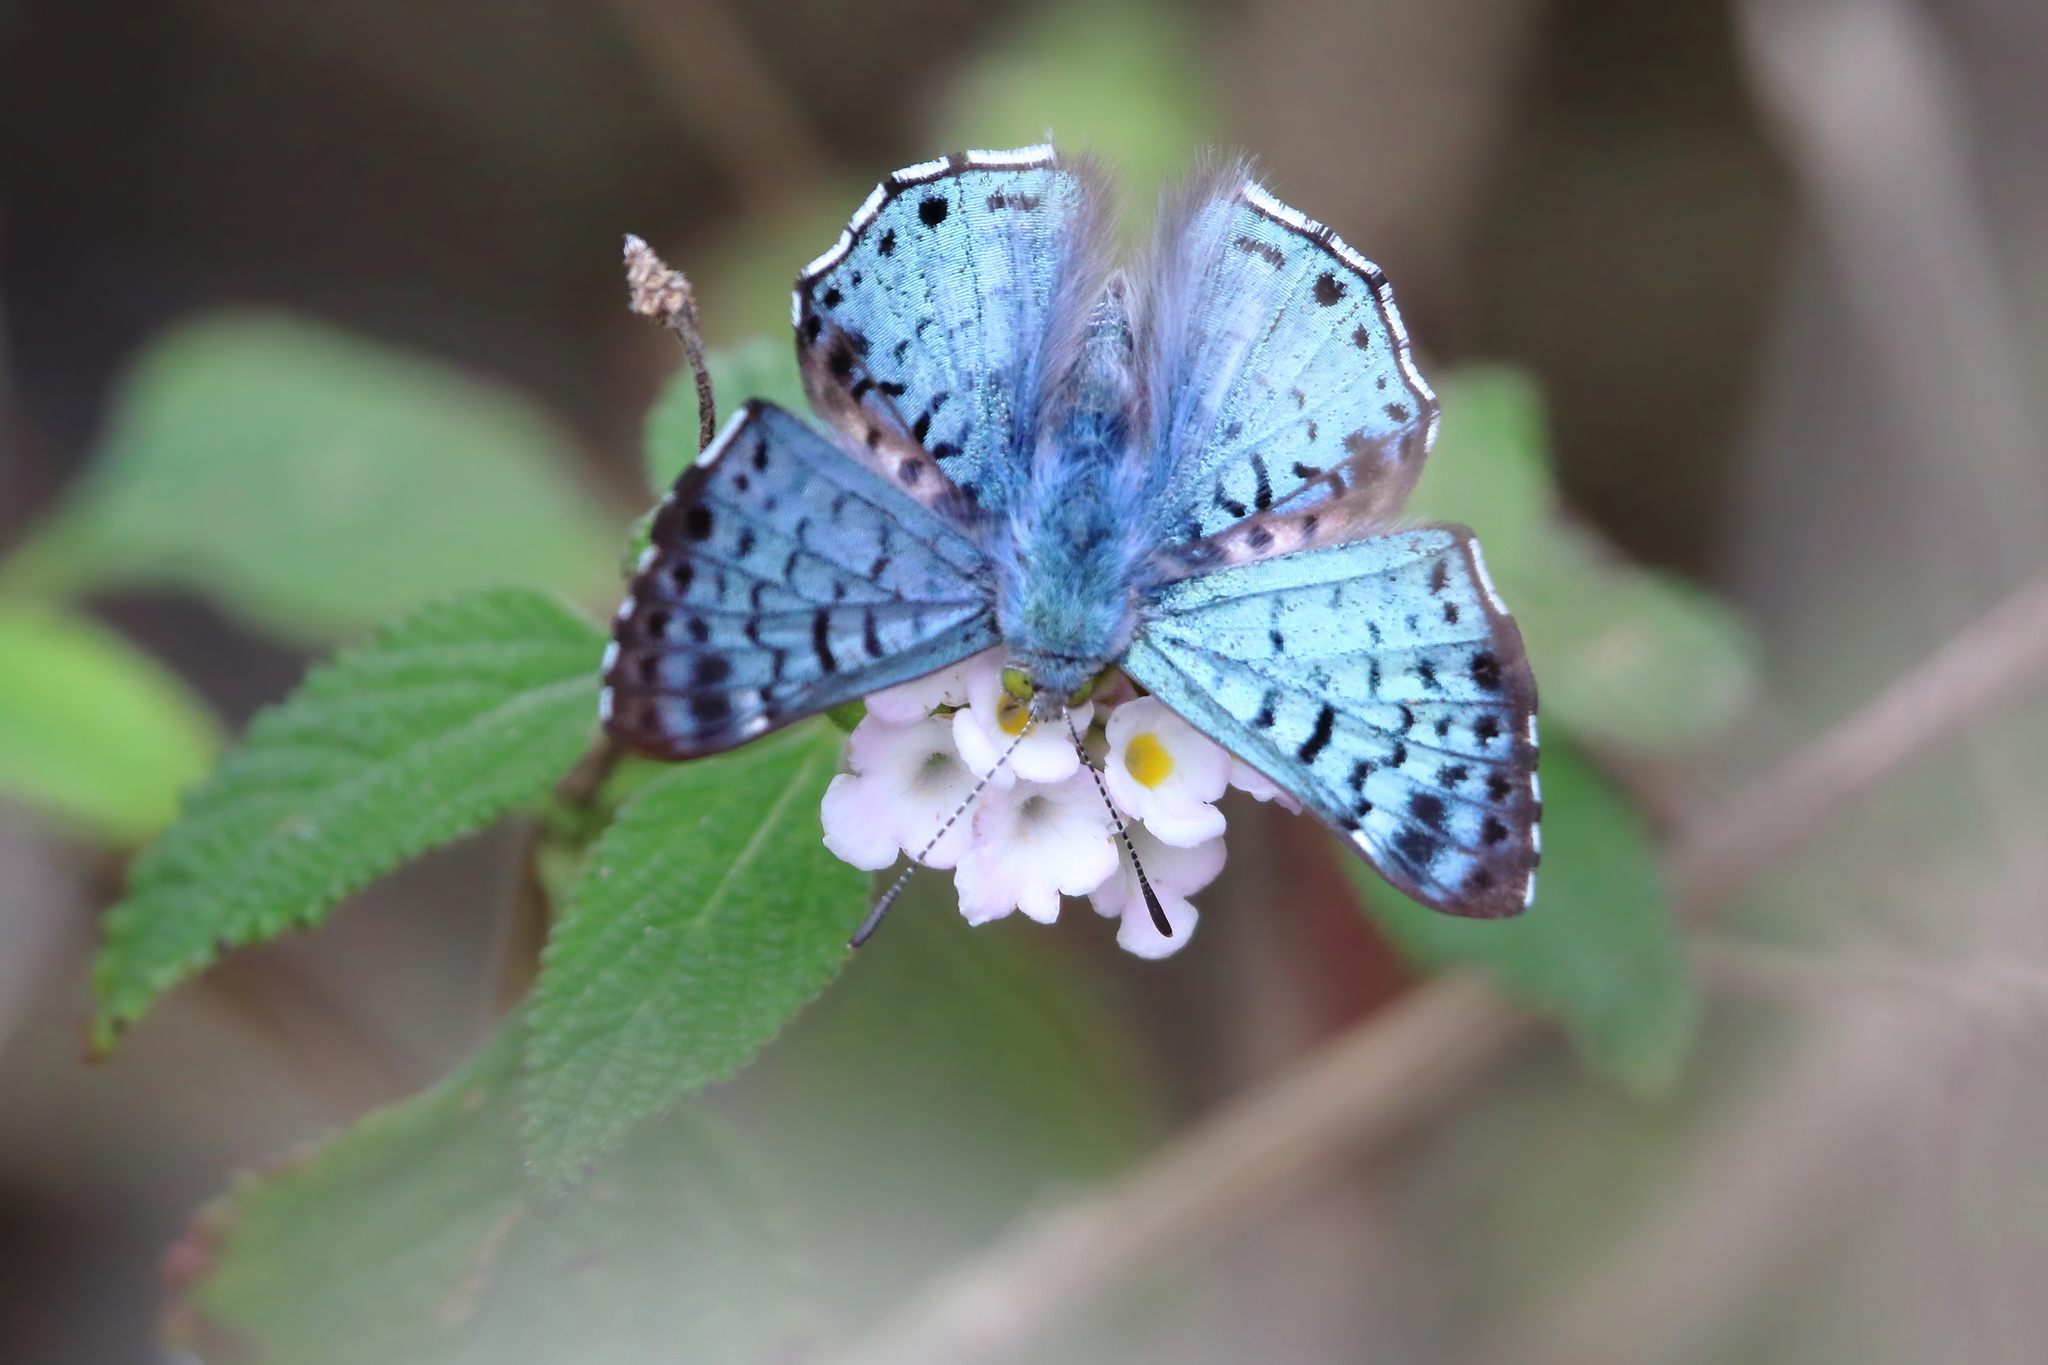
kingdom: Animalia
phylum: Arthropoda
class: Insecta
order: Lepidoptera
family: Riodinidae
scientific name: Riodinidae
